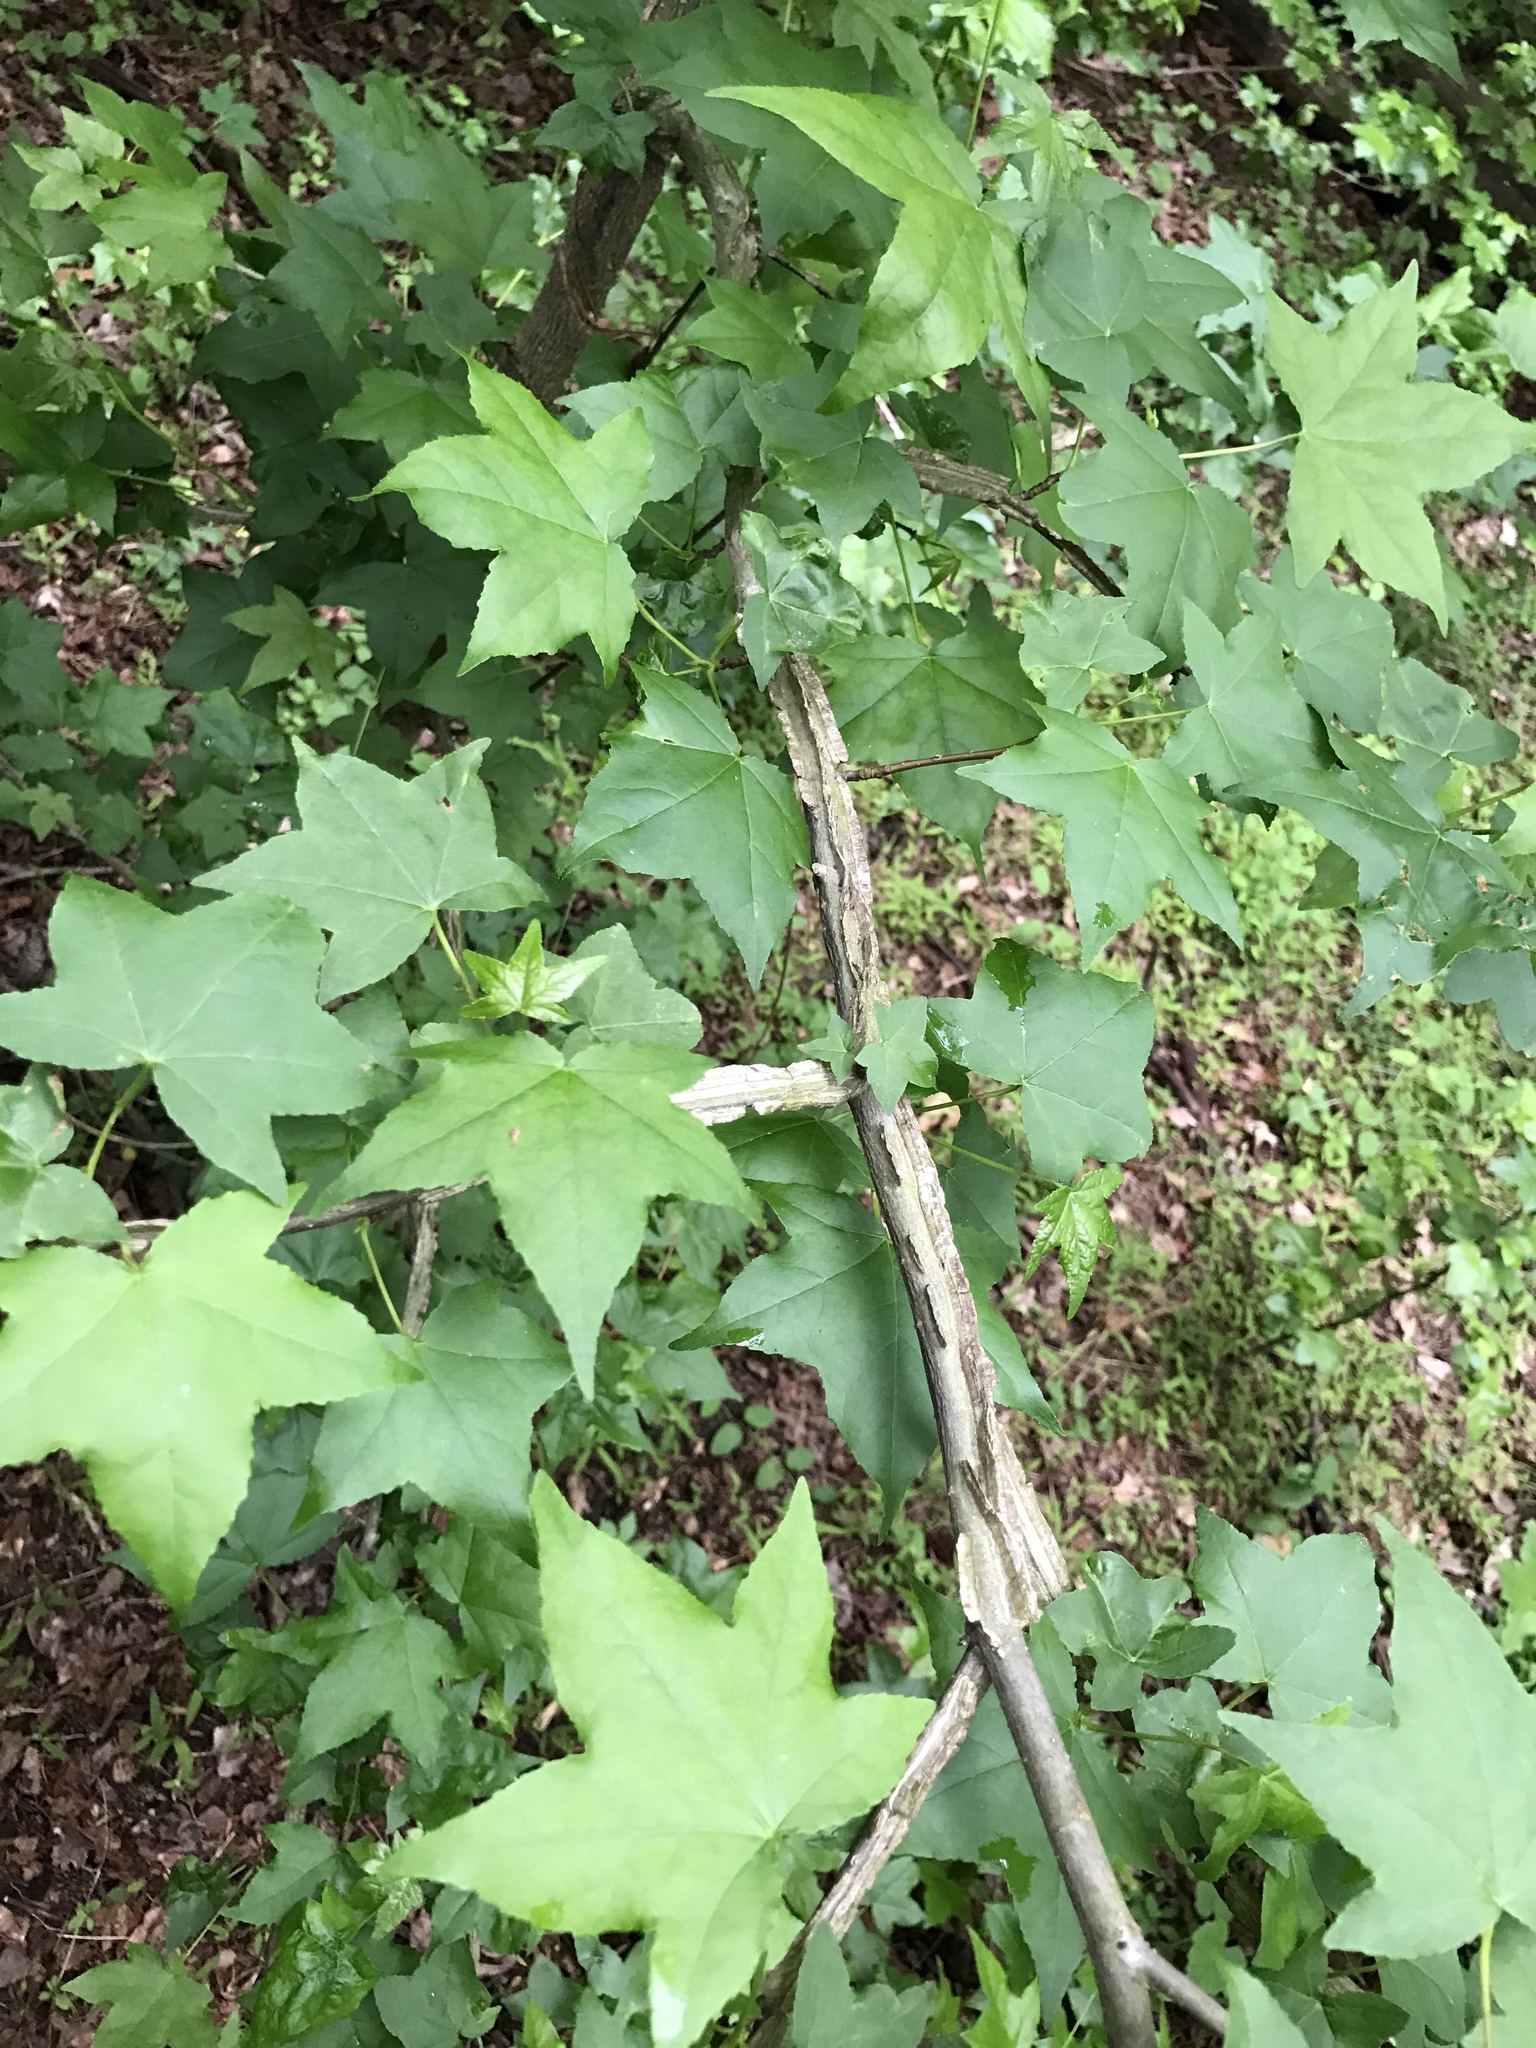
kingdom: Plantae
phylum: Tracheophyta
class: Magnoliopsida
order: Saxifragales
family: Altingiaceae
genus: Liquidambar
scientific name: Liquidambar styraciflua
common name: Sweet gum
